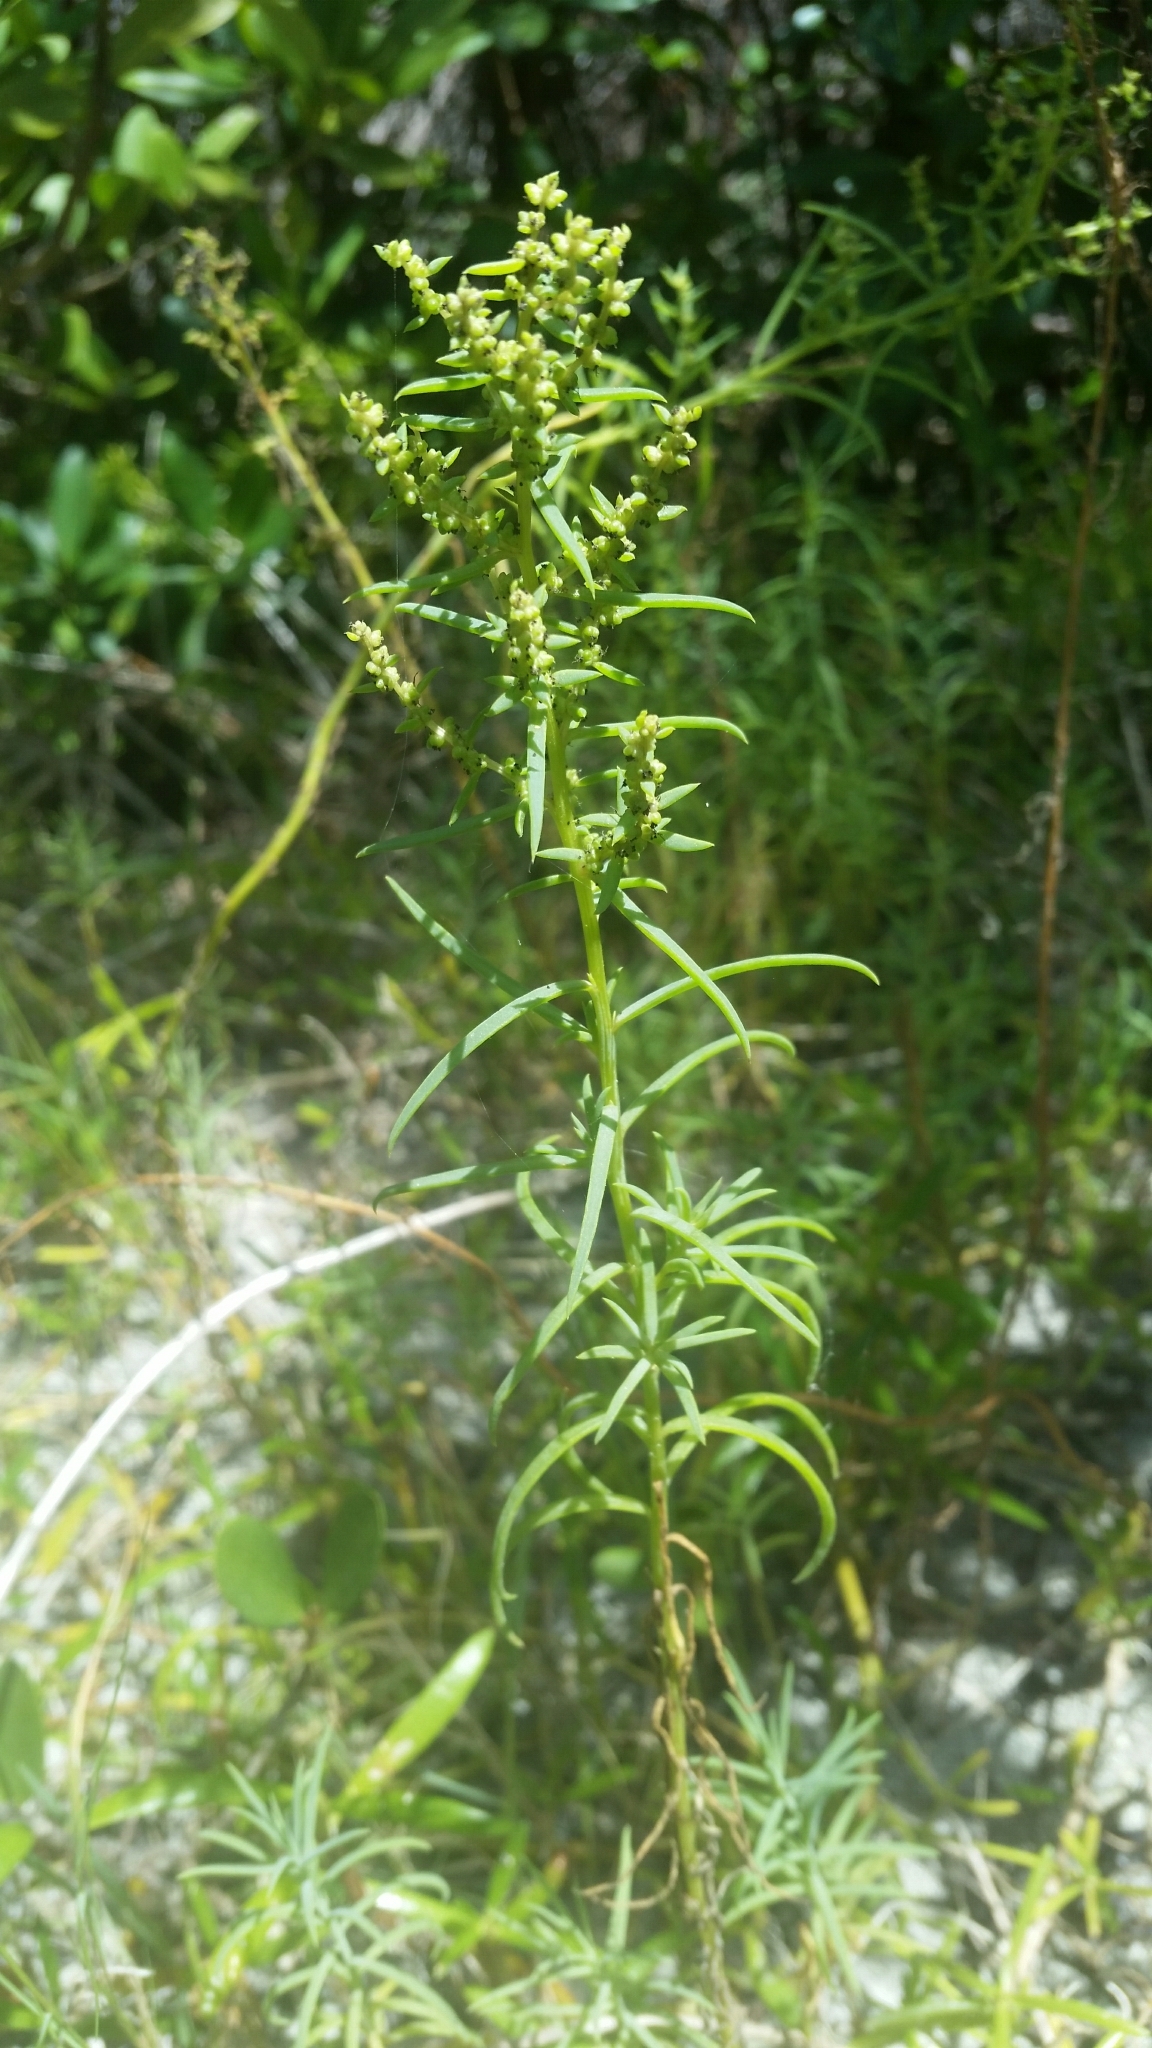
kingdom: Plantae
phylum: Tracheophyta
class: Magnoliopsida
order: Caryophyllales
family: Amaranthaceae
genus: Suaeda
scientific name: Suaeda linearis
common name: Annual seepweed
